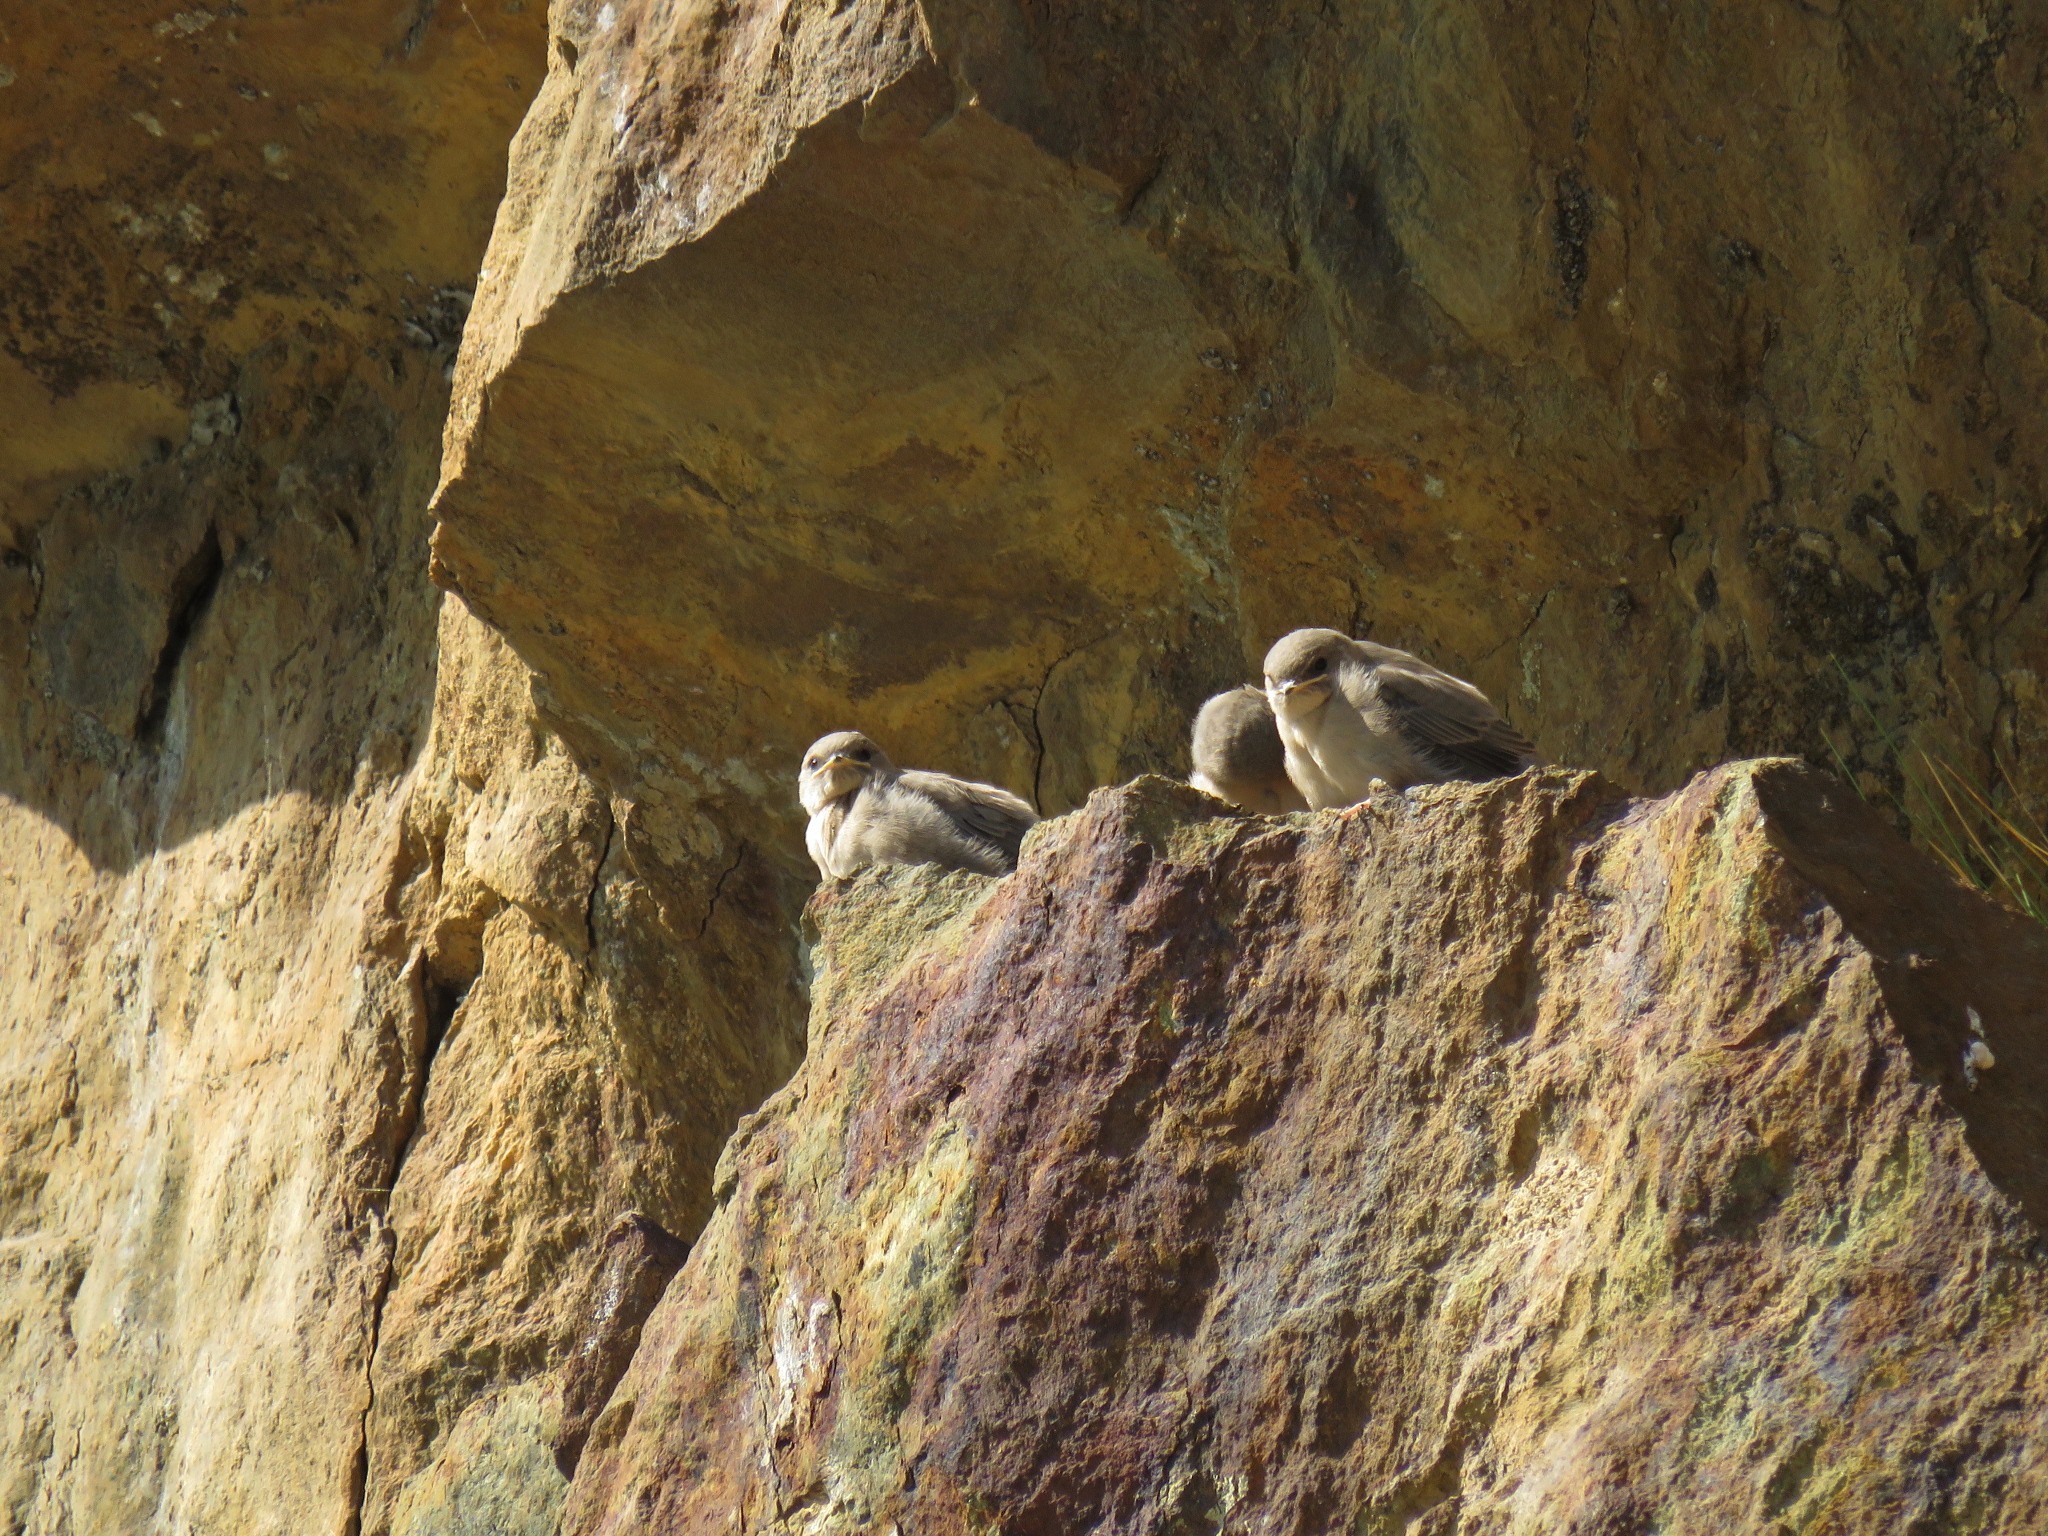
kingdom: Animalia
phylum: Chordata
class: Aves
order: Passeriformes
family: Hirundinidae
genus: Ptyonoprogne
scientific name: Ptyonoprogne rupestris
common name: Eurasian crag martin
